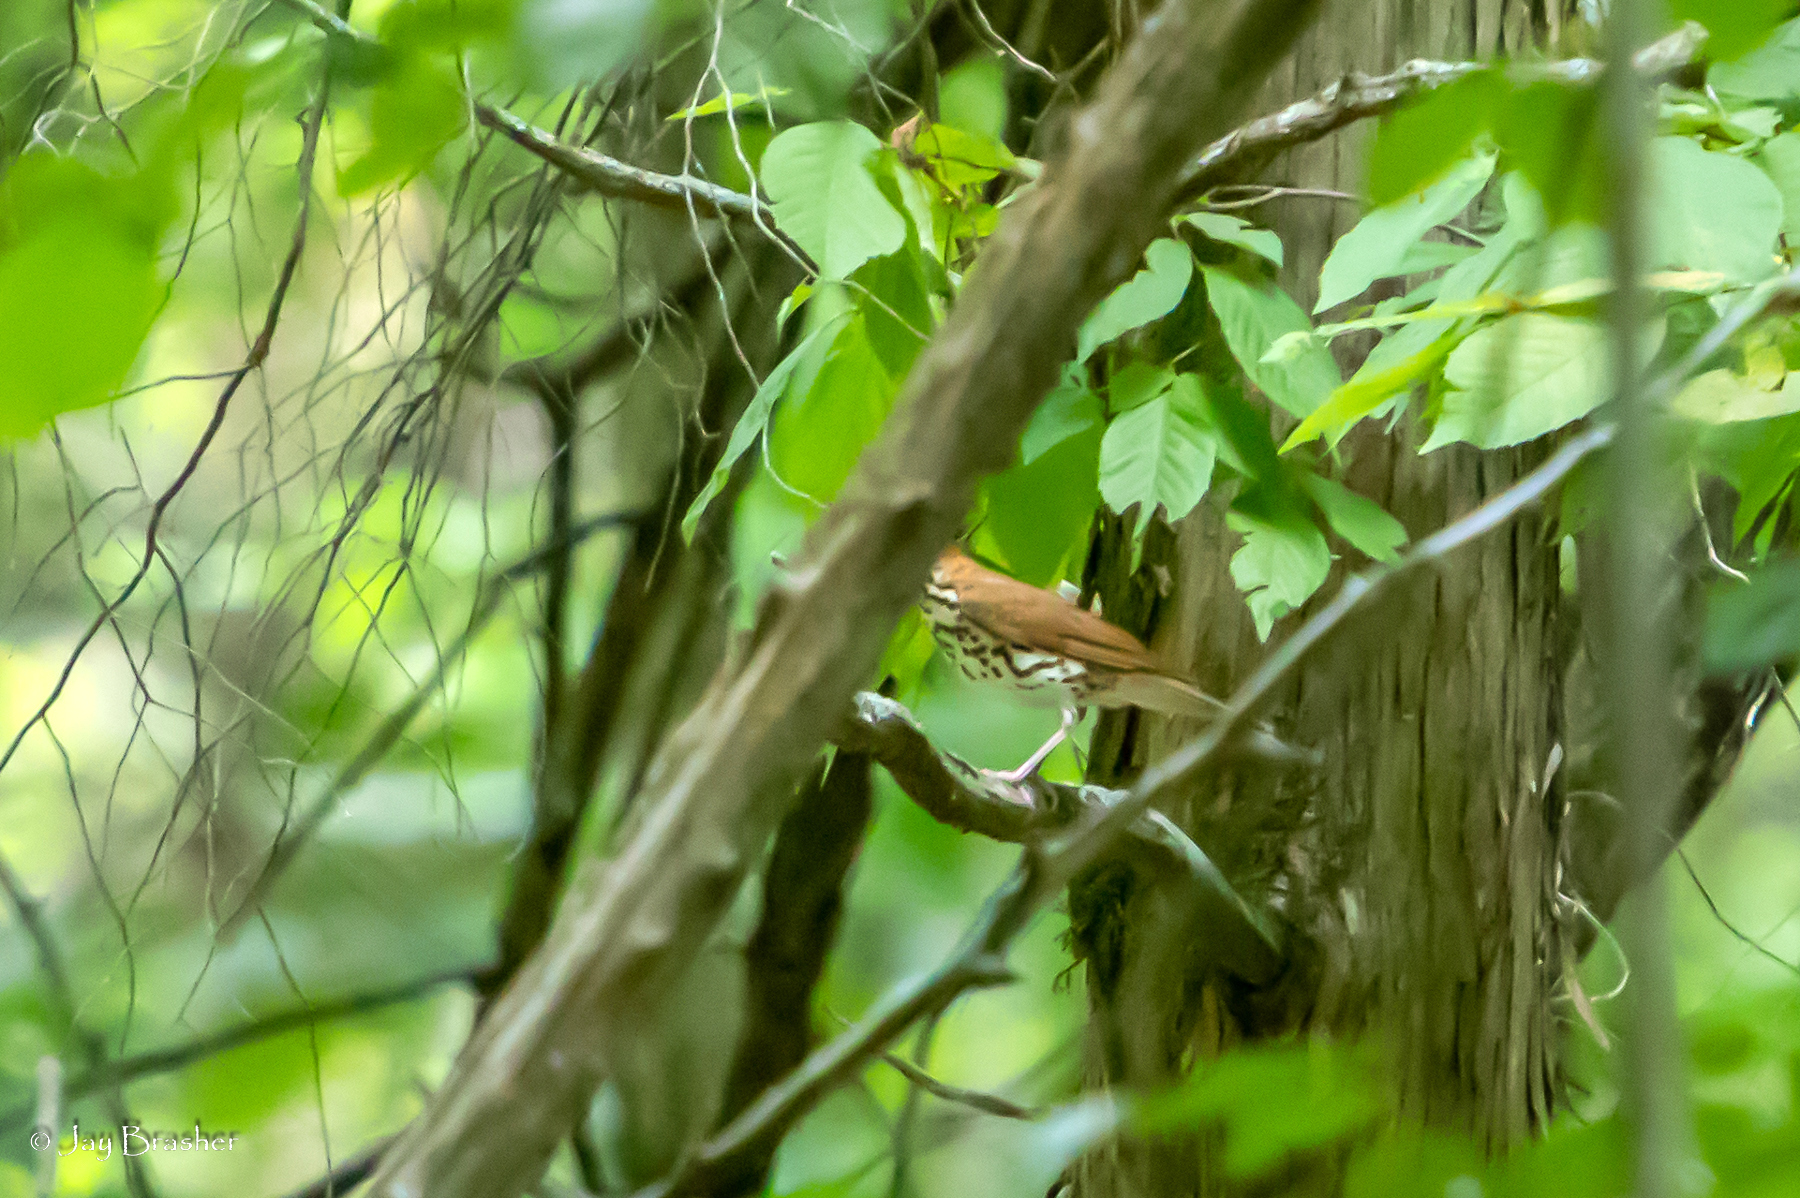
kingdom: Animalia
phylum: Chordata
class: Aves
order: Passeriformes
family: Turdidae
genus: Hylocichla
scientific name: Hylocichla mustelina
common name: Wood thrush
